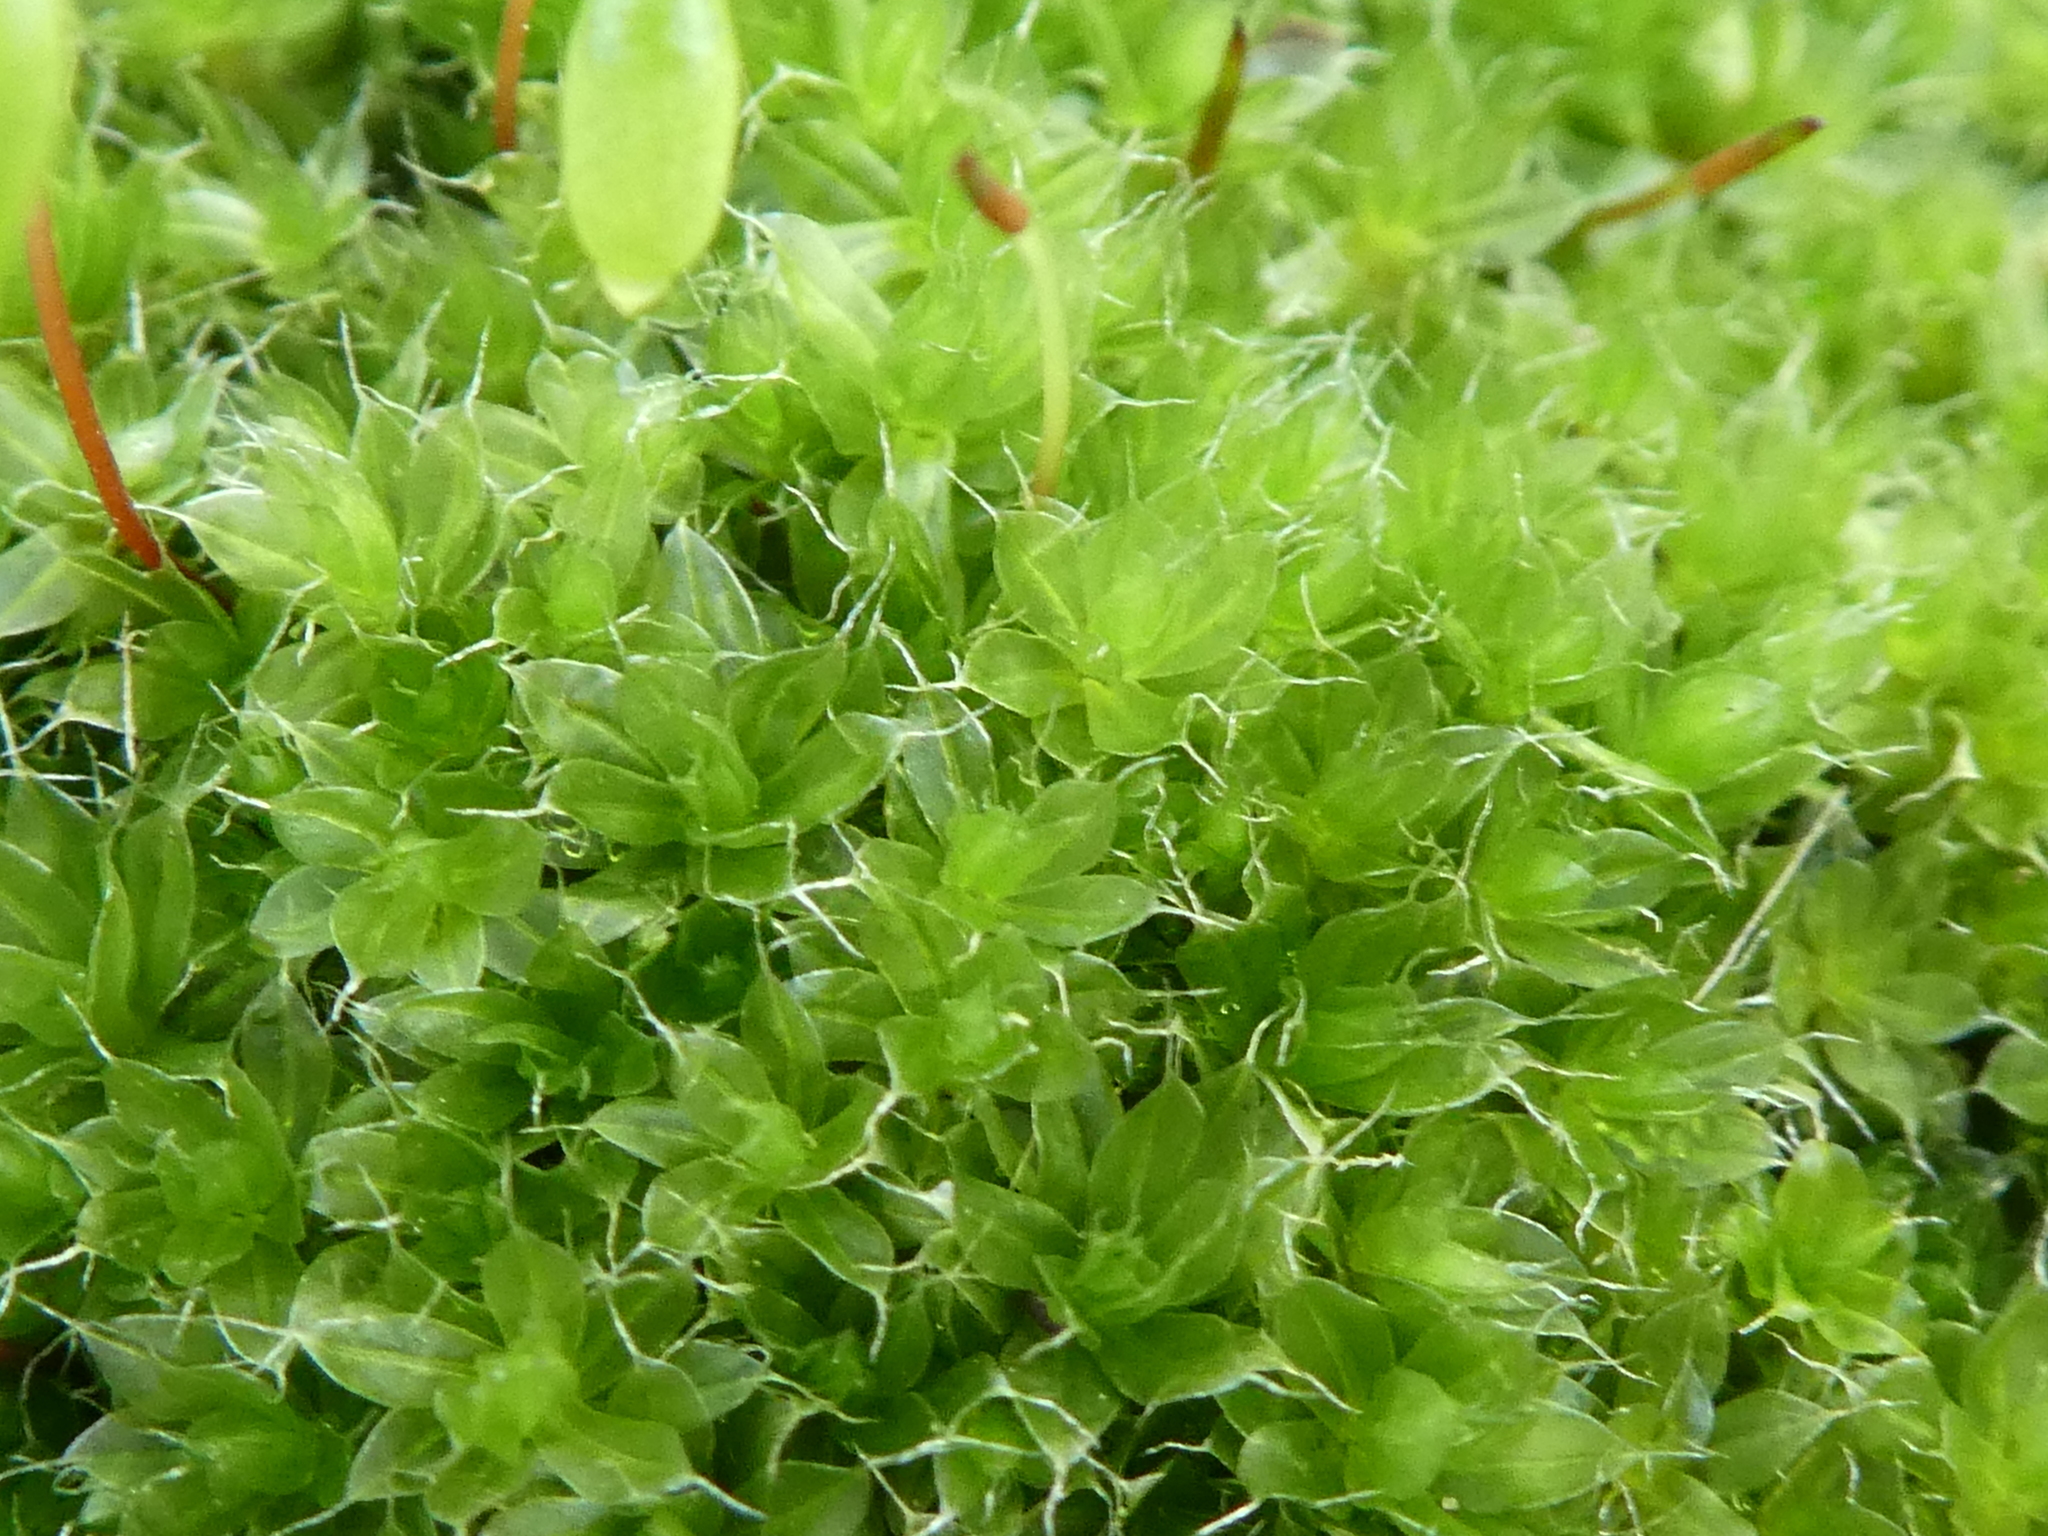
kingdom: Plantae
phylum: Bryophyta
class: Bryopsida
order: Bryales
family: Bryaceae
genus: Rosulabryum
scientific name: Rosulabryum capillare
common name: Capillary thread-moss
